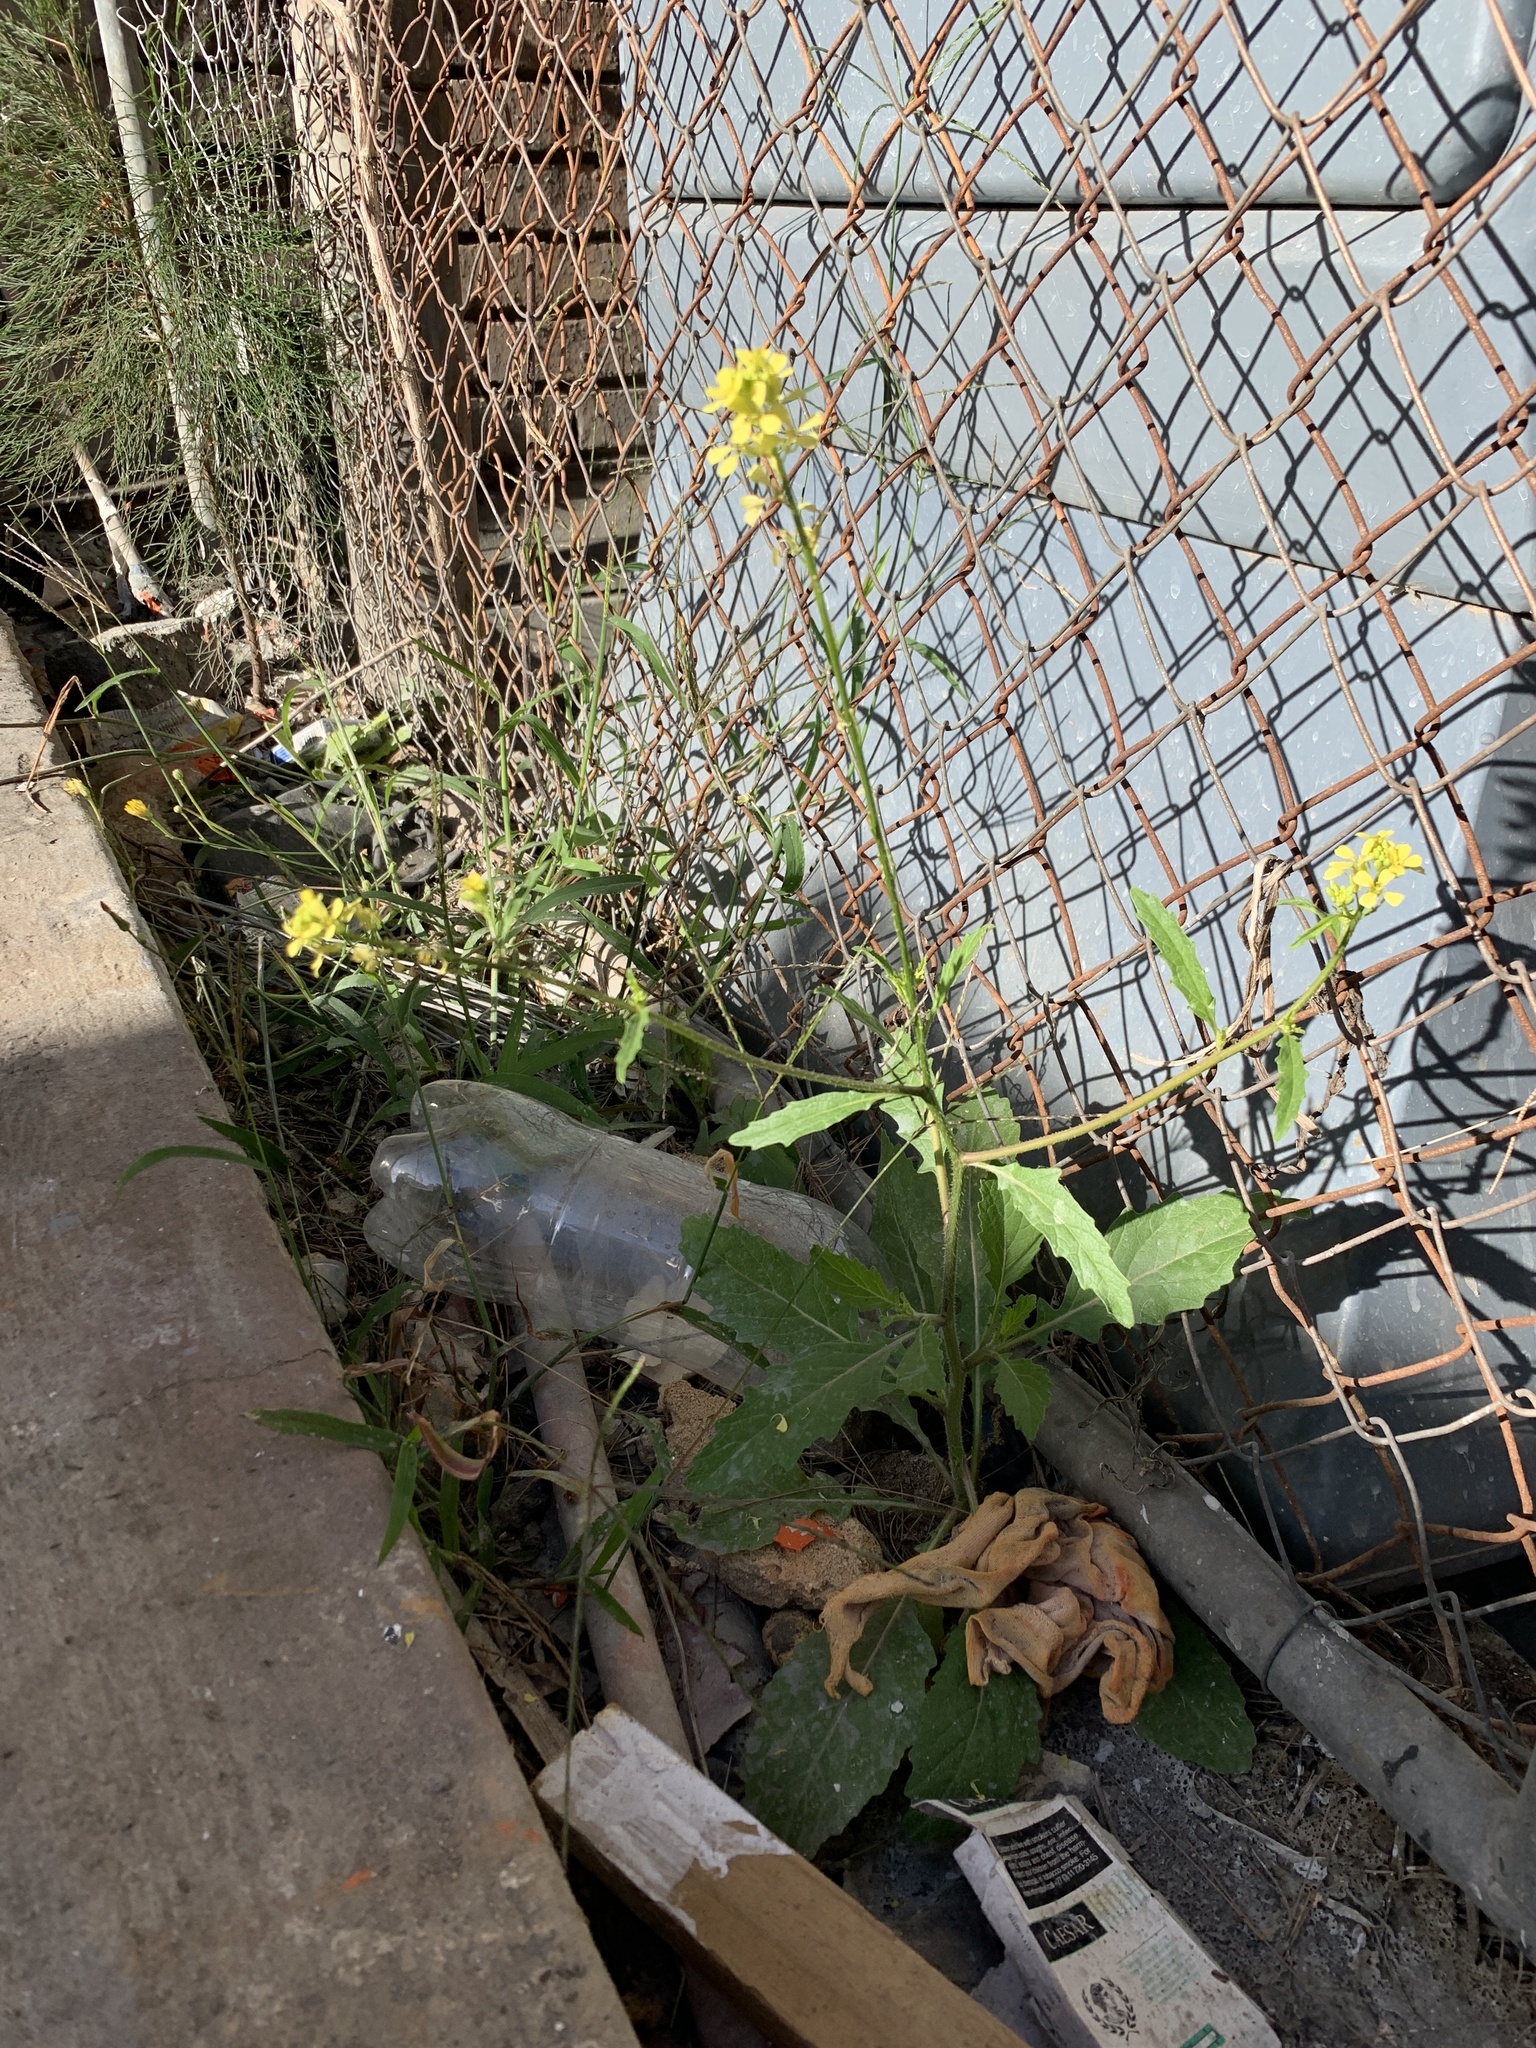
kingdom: Plantae
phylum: Tracheophyta
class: Magnoliopsida
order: Brassicales
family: Brassicaceae
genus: Rapistrum
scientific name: Rapistrum rugosum
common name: Annual bastardcabbage
